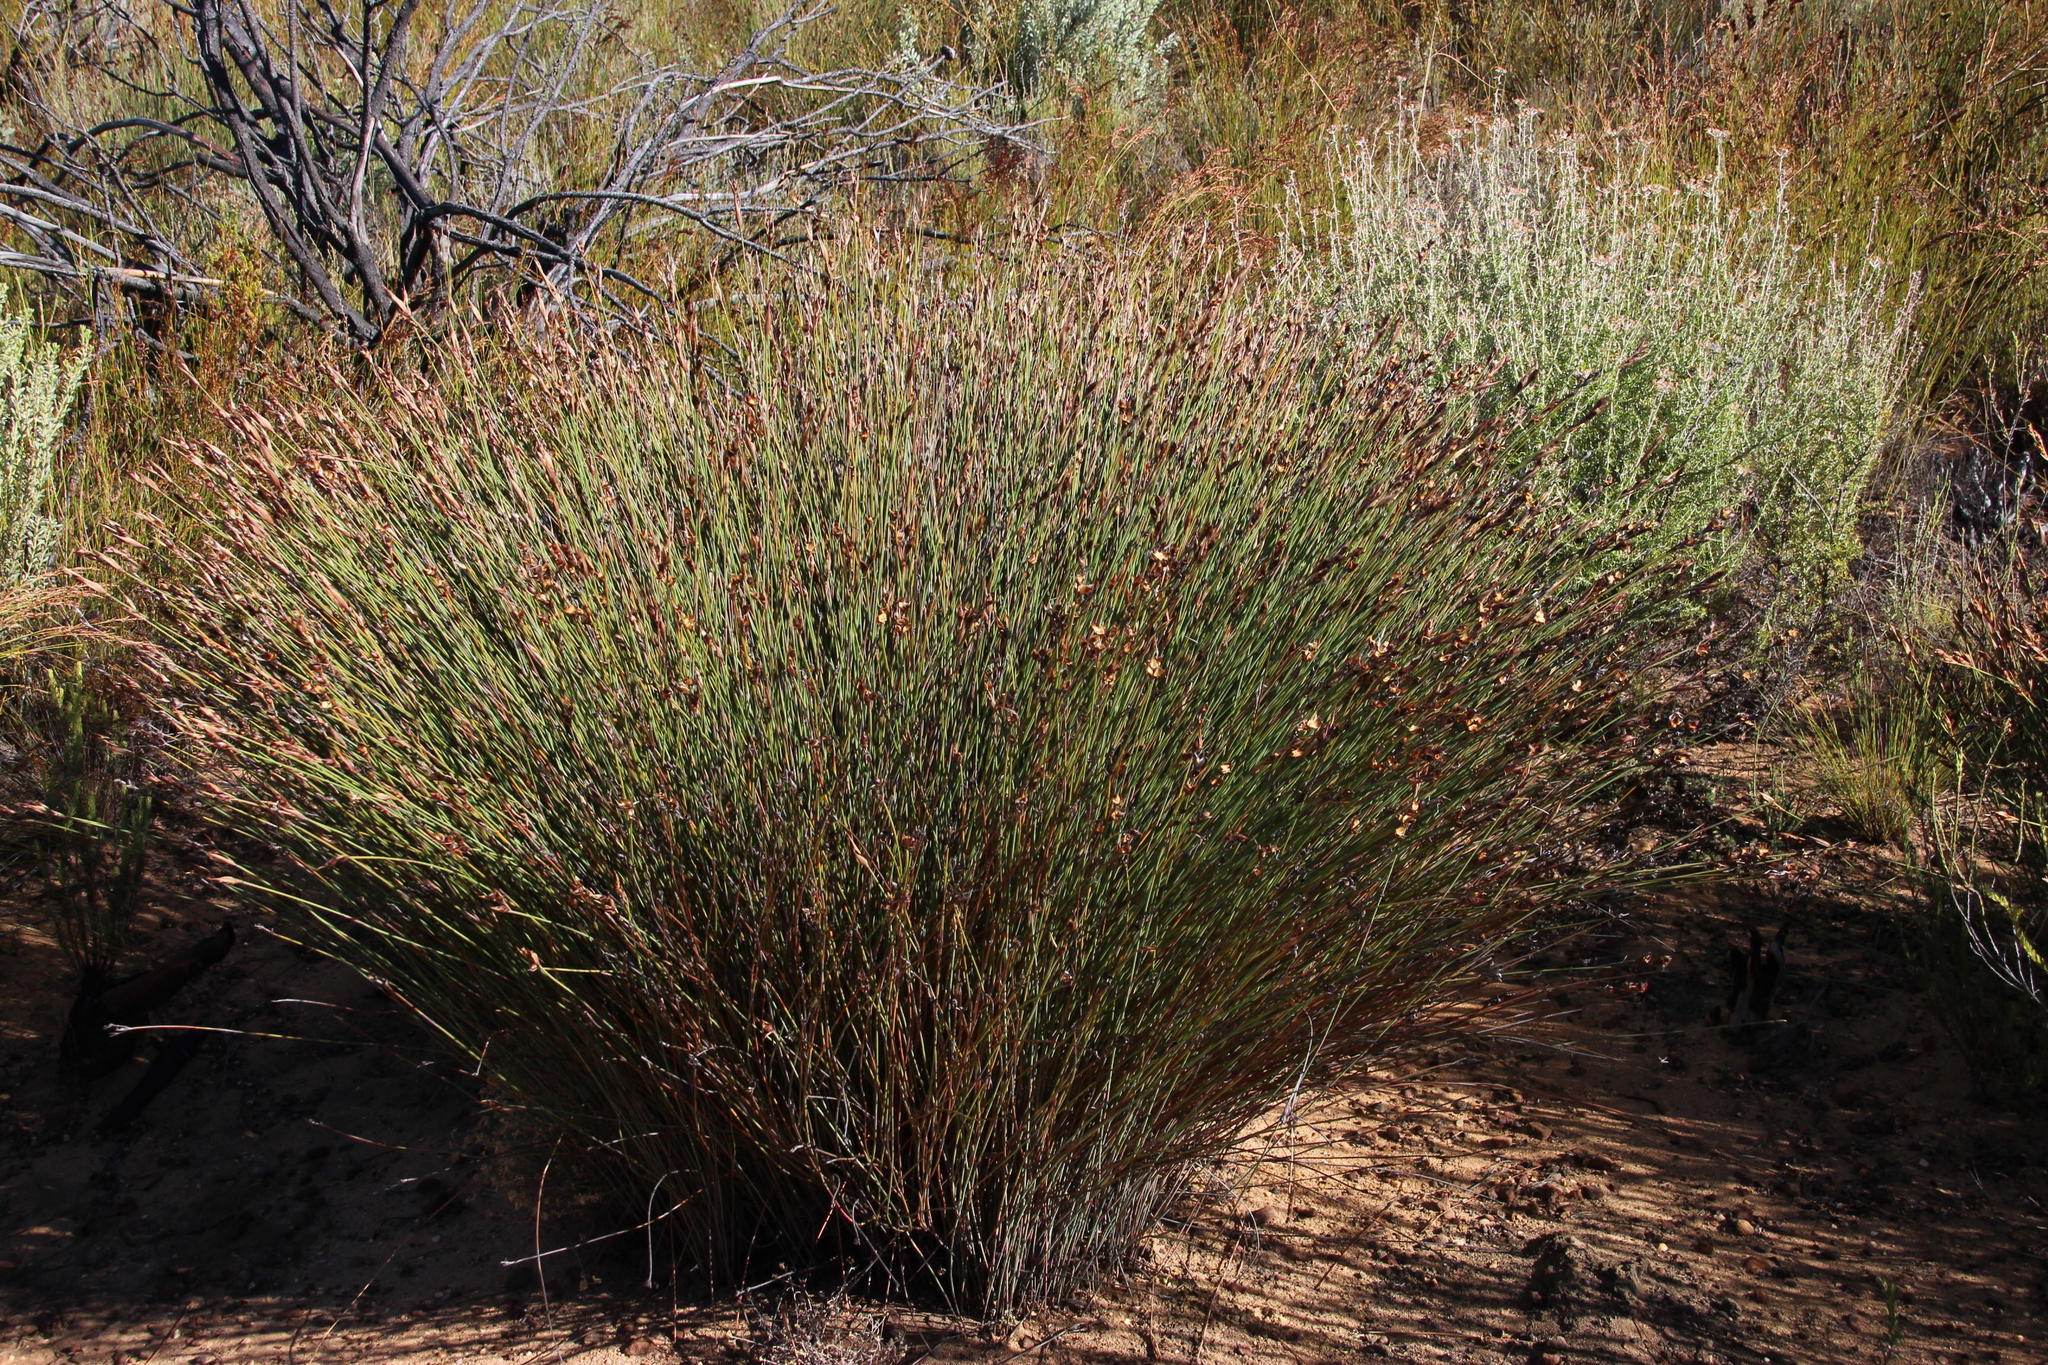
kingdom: Plantae
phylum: Tracheophyta
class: Liliopsida
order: Poales
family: Restionaceae
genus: Cannomois
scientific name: Cannomois parviflora
